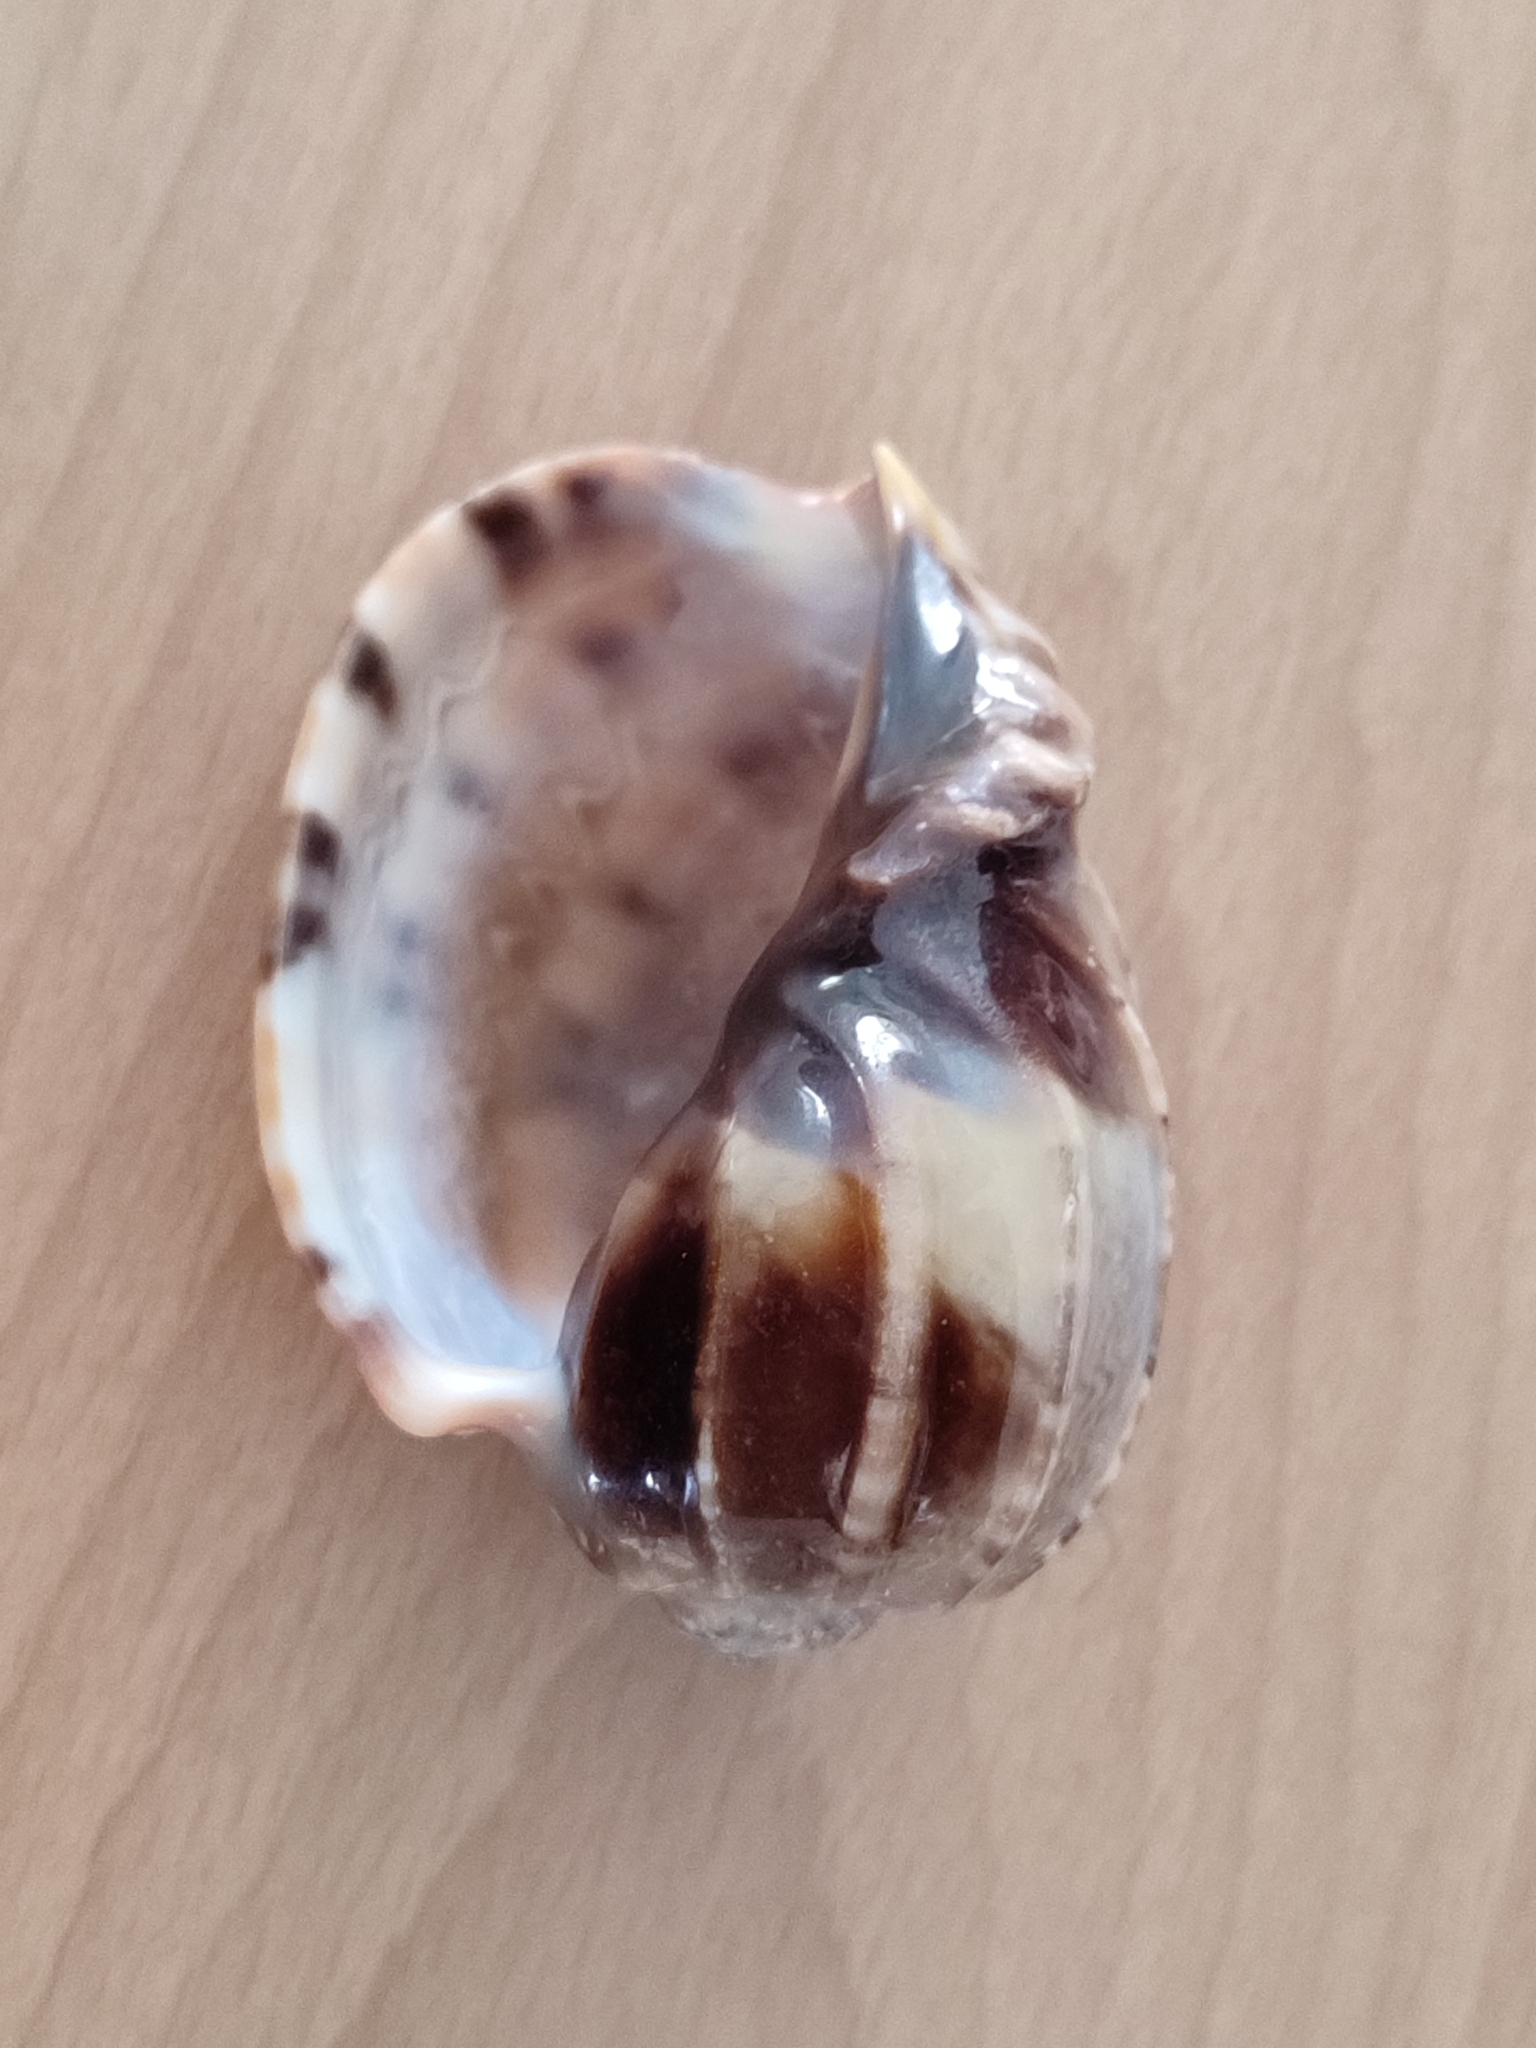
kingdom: Animalia
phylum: Mollusca
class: Gastropoda
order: Neogastropoda
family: Harpidae
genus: Harpa
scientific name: Harpa major
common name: Large harp
